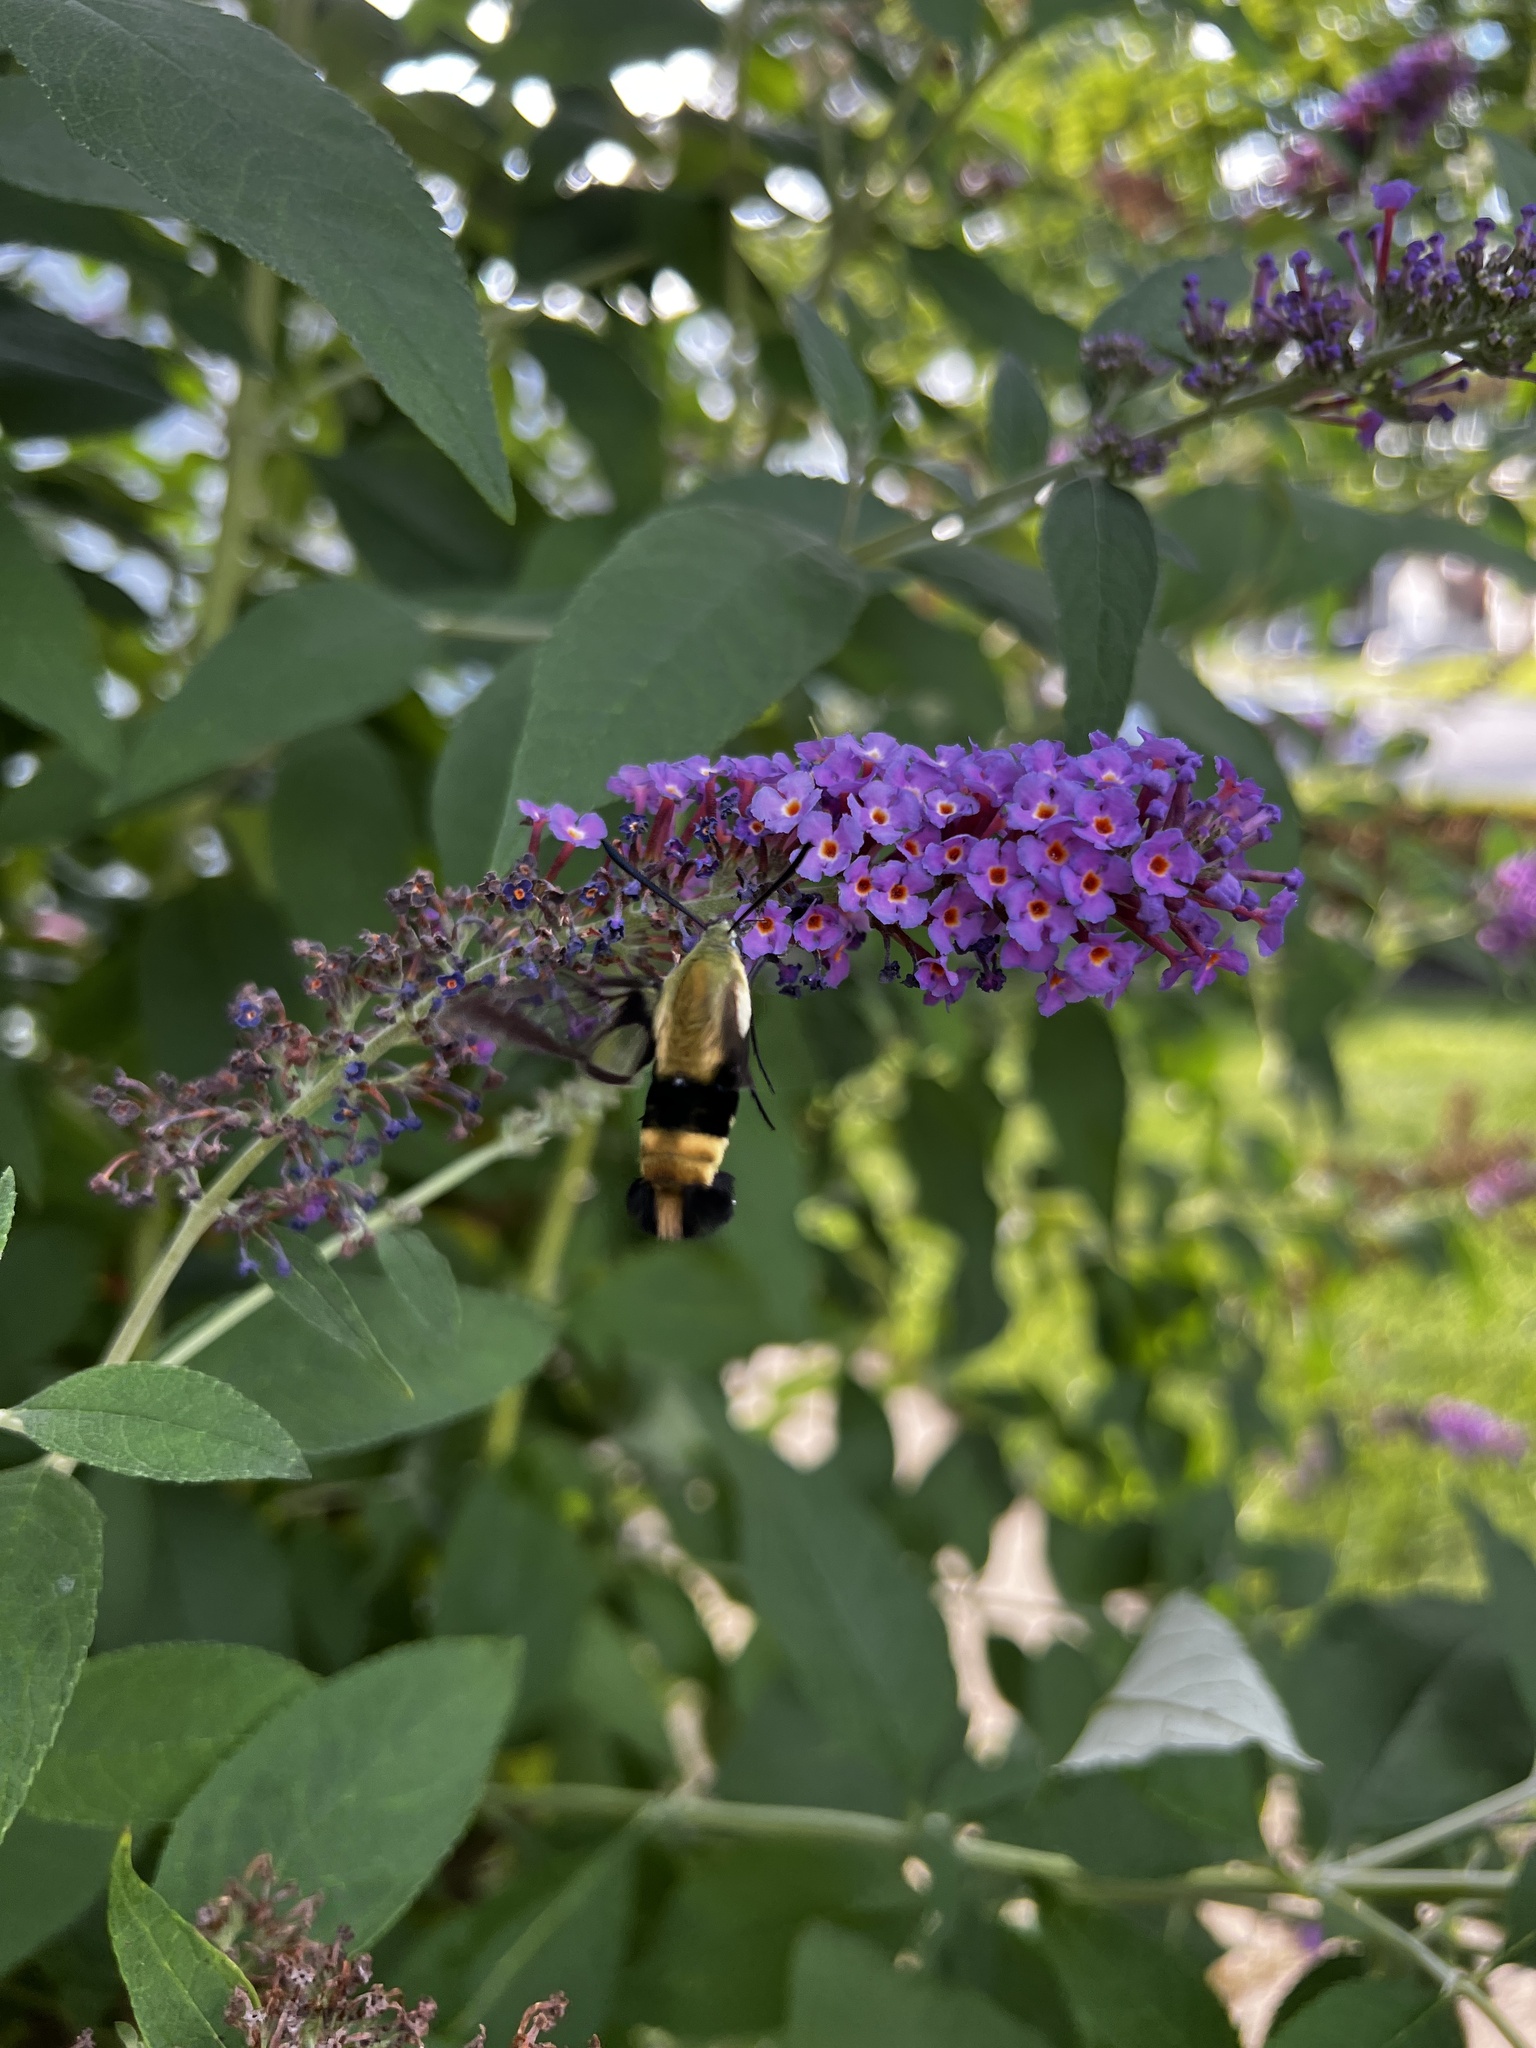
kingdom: Animalia
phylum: Arthropoda
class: Insecta
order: Lepidoptera
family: Sphingidae
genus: Hemaris
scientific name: Hemaris diffinis
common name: Bumblebee moth
